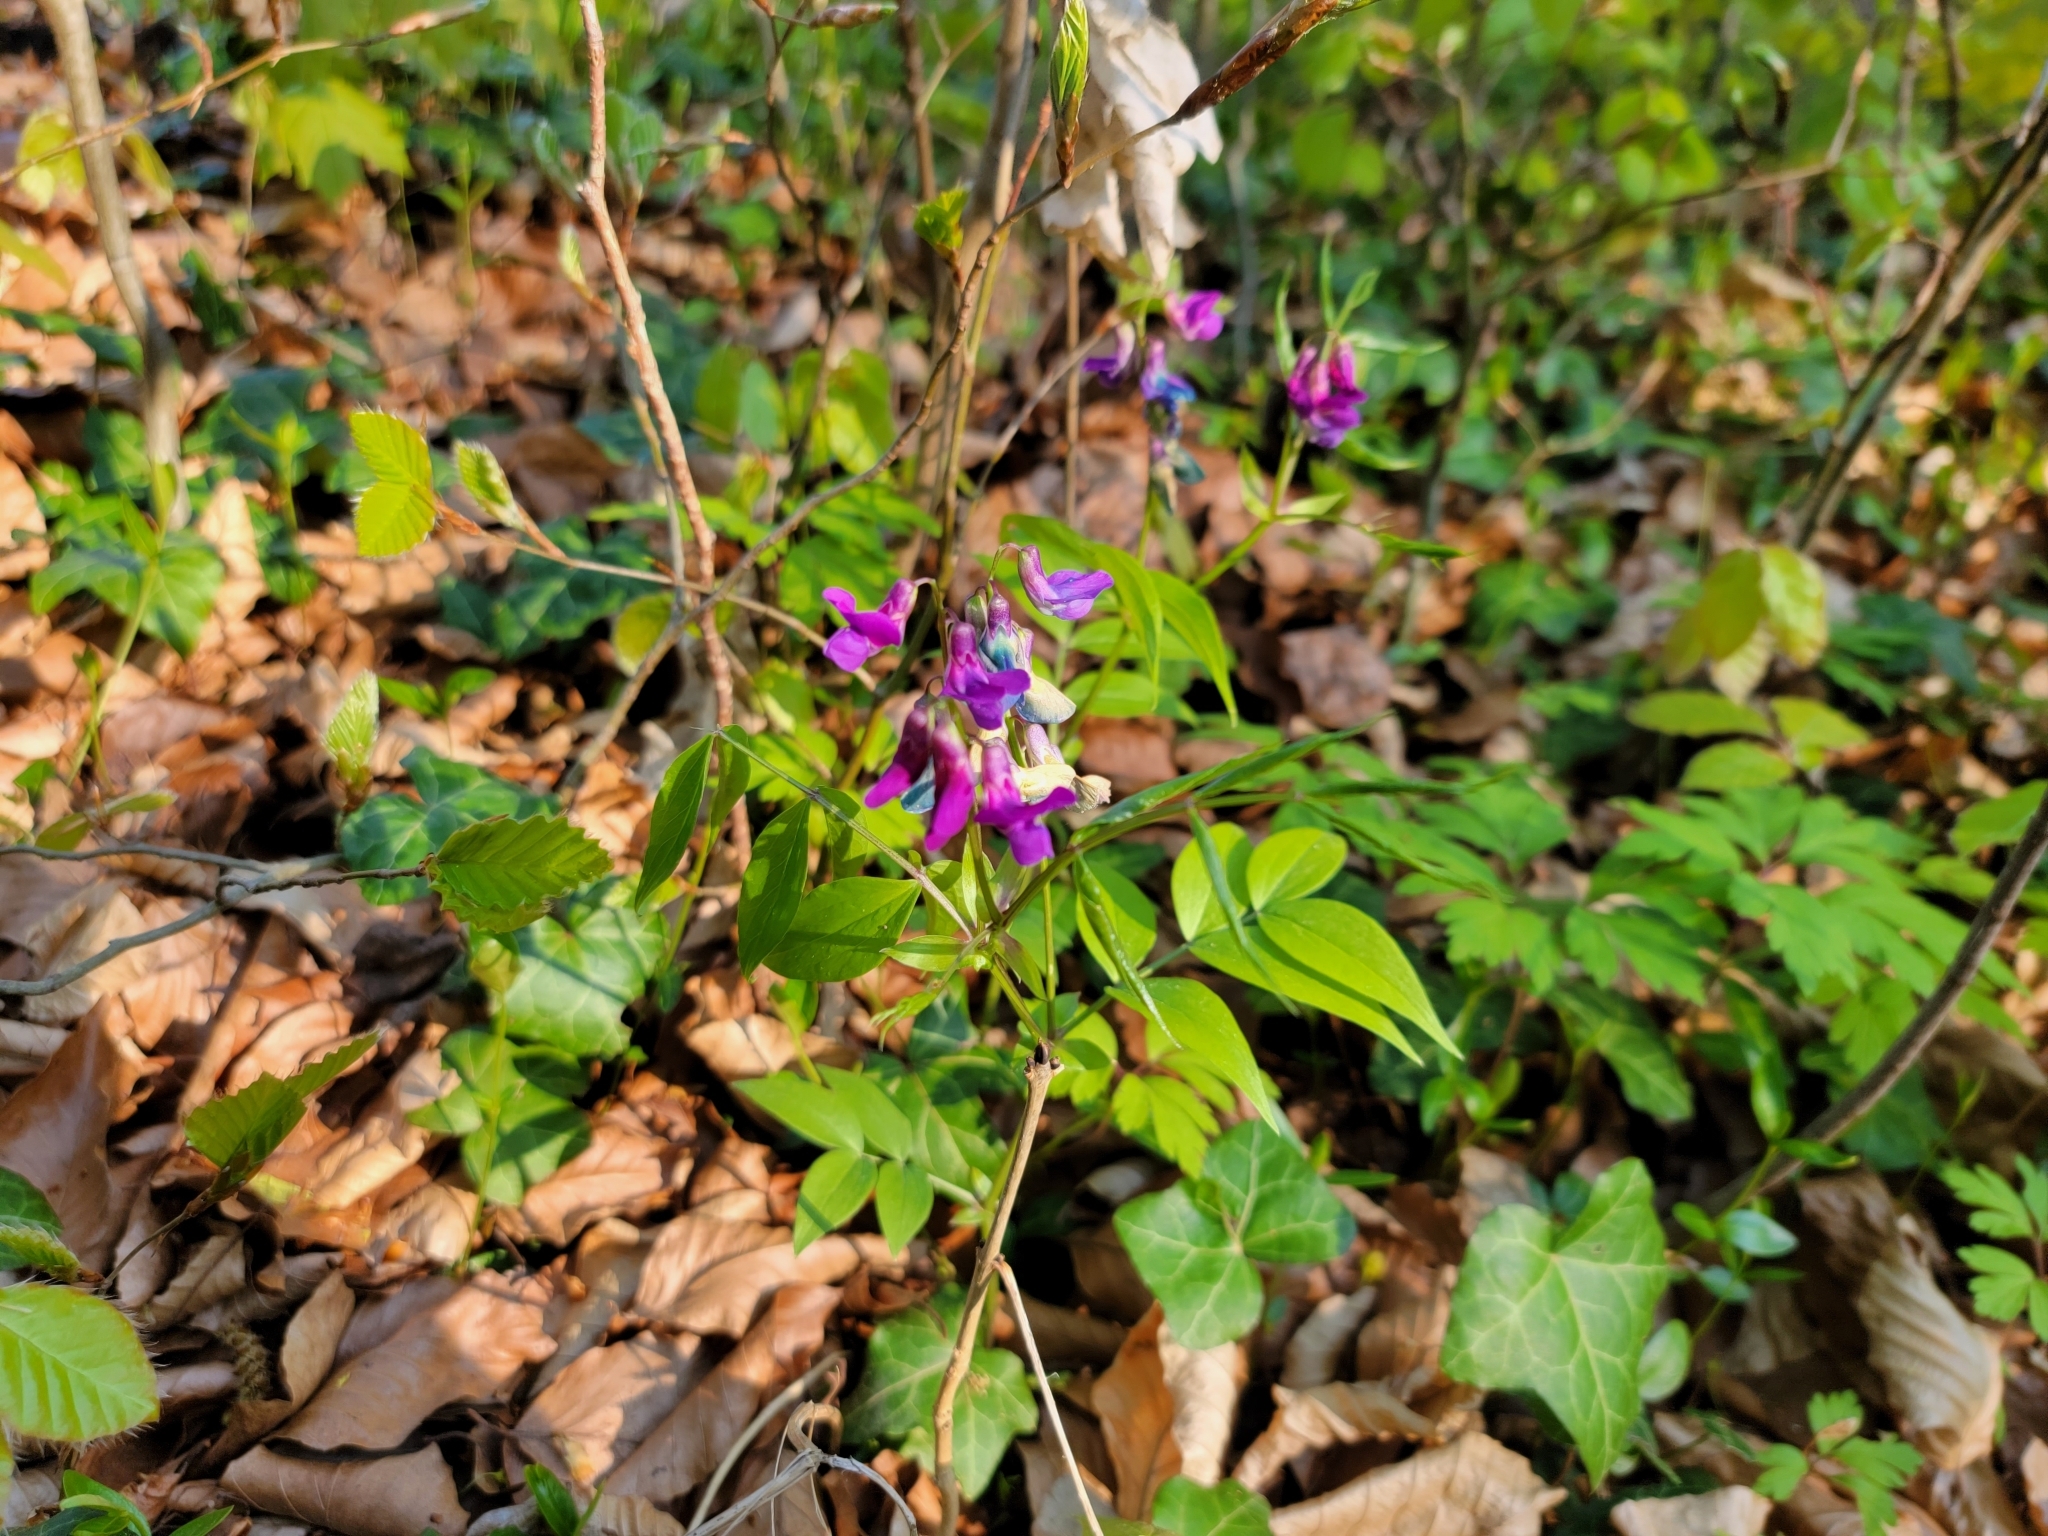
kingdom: Plantae
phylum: Tracheophyta
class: Magnoliopsida
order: Fabales
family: Fabaceae
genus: Lathyrus
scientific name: Lathyrus vernus
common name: Spring pea
